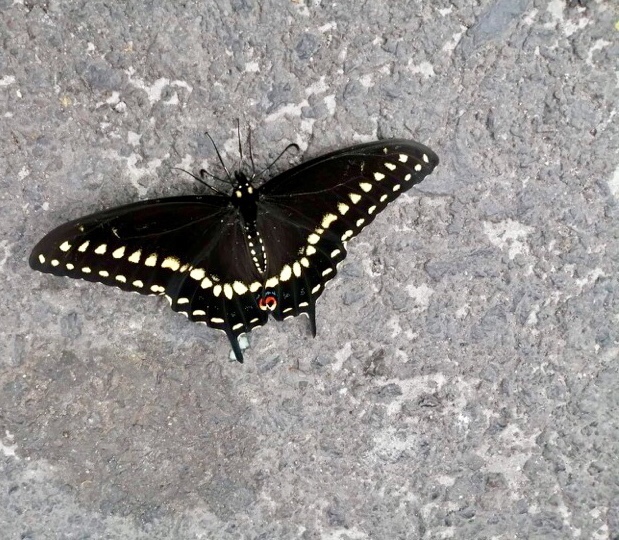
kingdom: Animalia
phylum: Arthropoda
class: Insecta
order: Lepidoptera
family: Papilionidae
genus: Papilio
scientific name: Papilio polyxenes
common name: Black swallowtail
